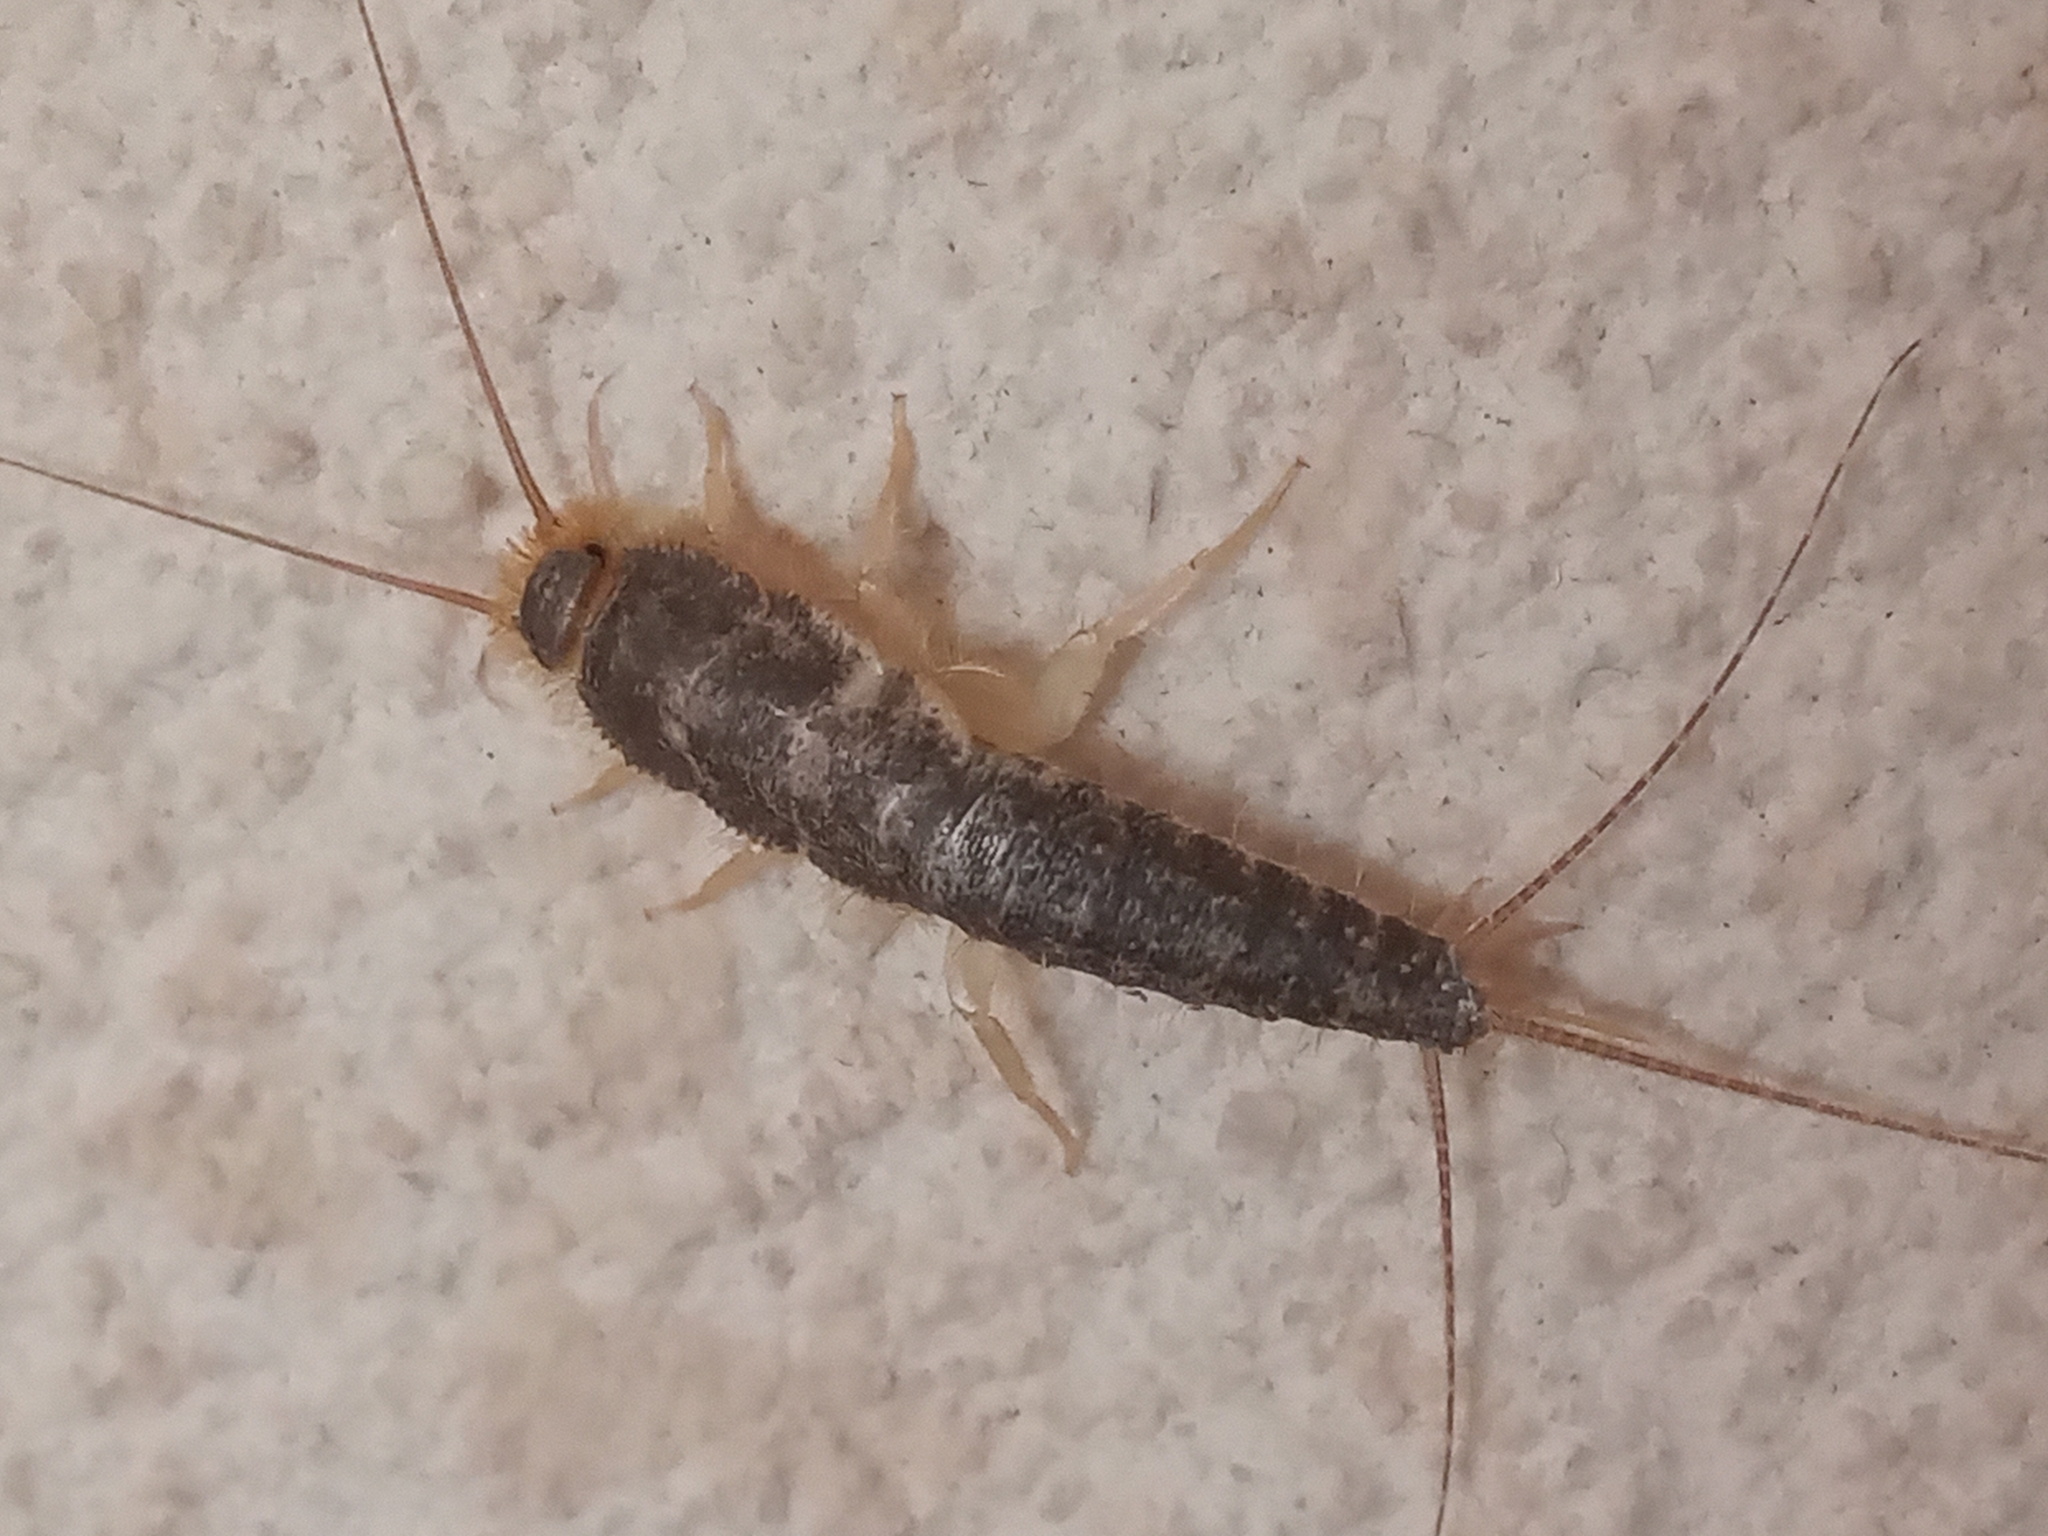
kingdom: Animalia
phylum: Arthropoda
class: Insecta
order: Zygentoma
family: Lepismatidae
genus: Ctenolepisma
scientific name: Ctenolepisma longicaudatum
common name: Silverfish
